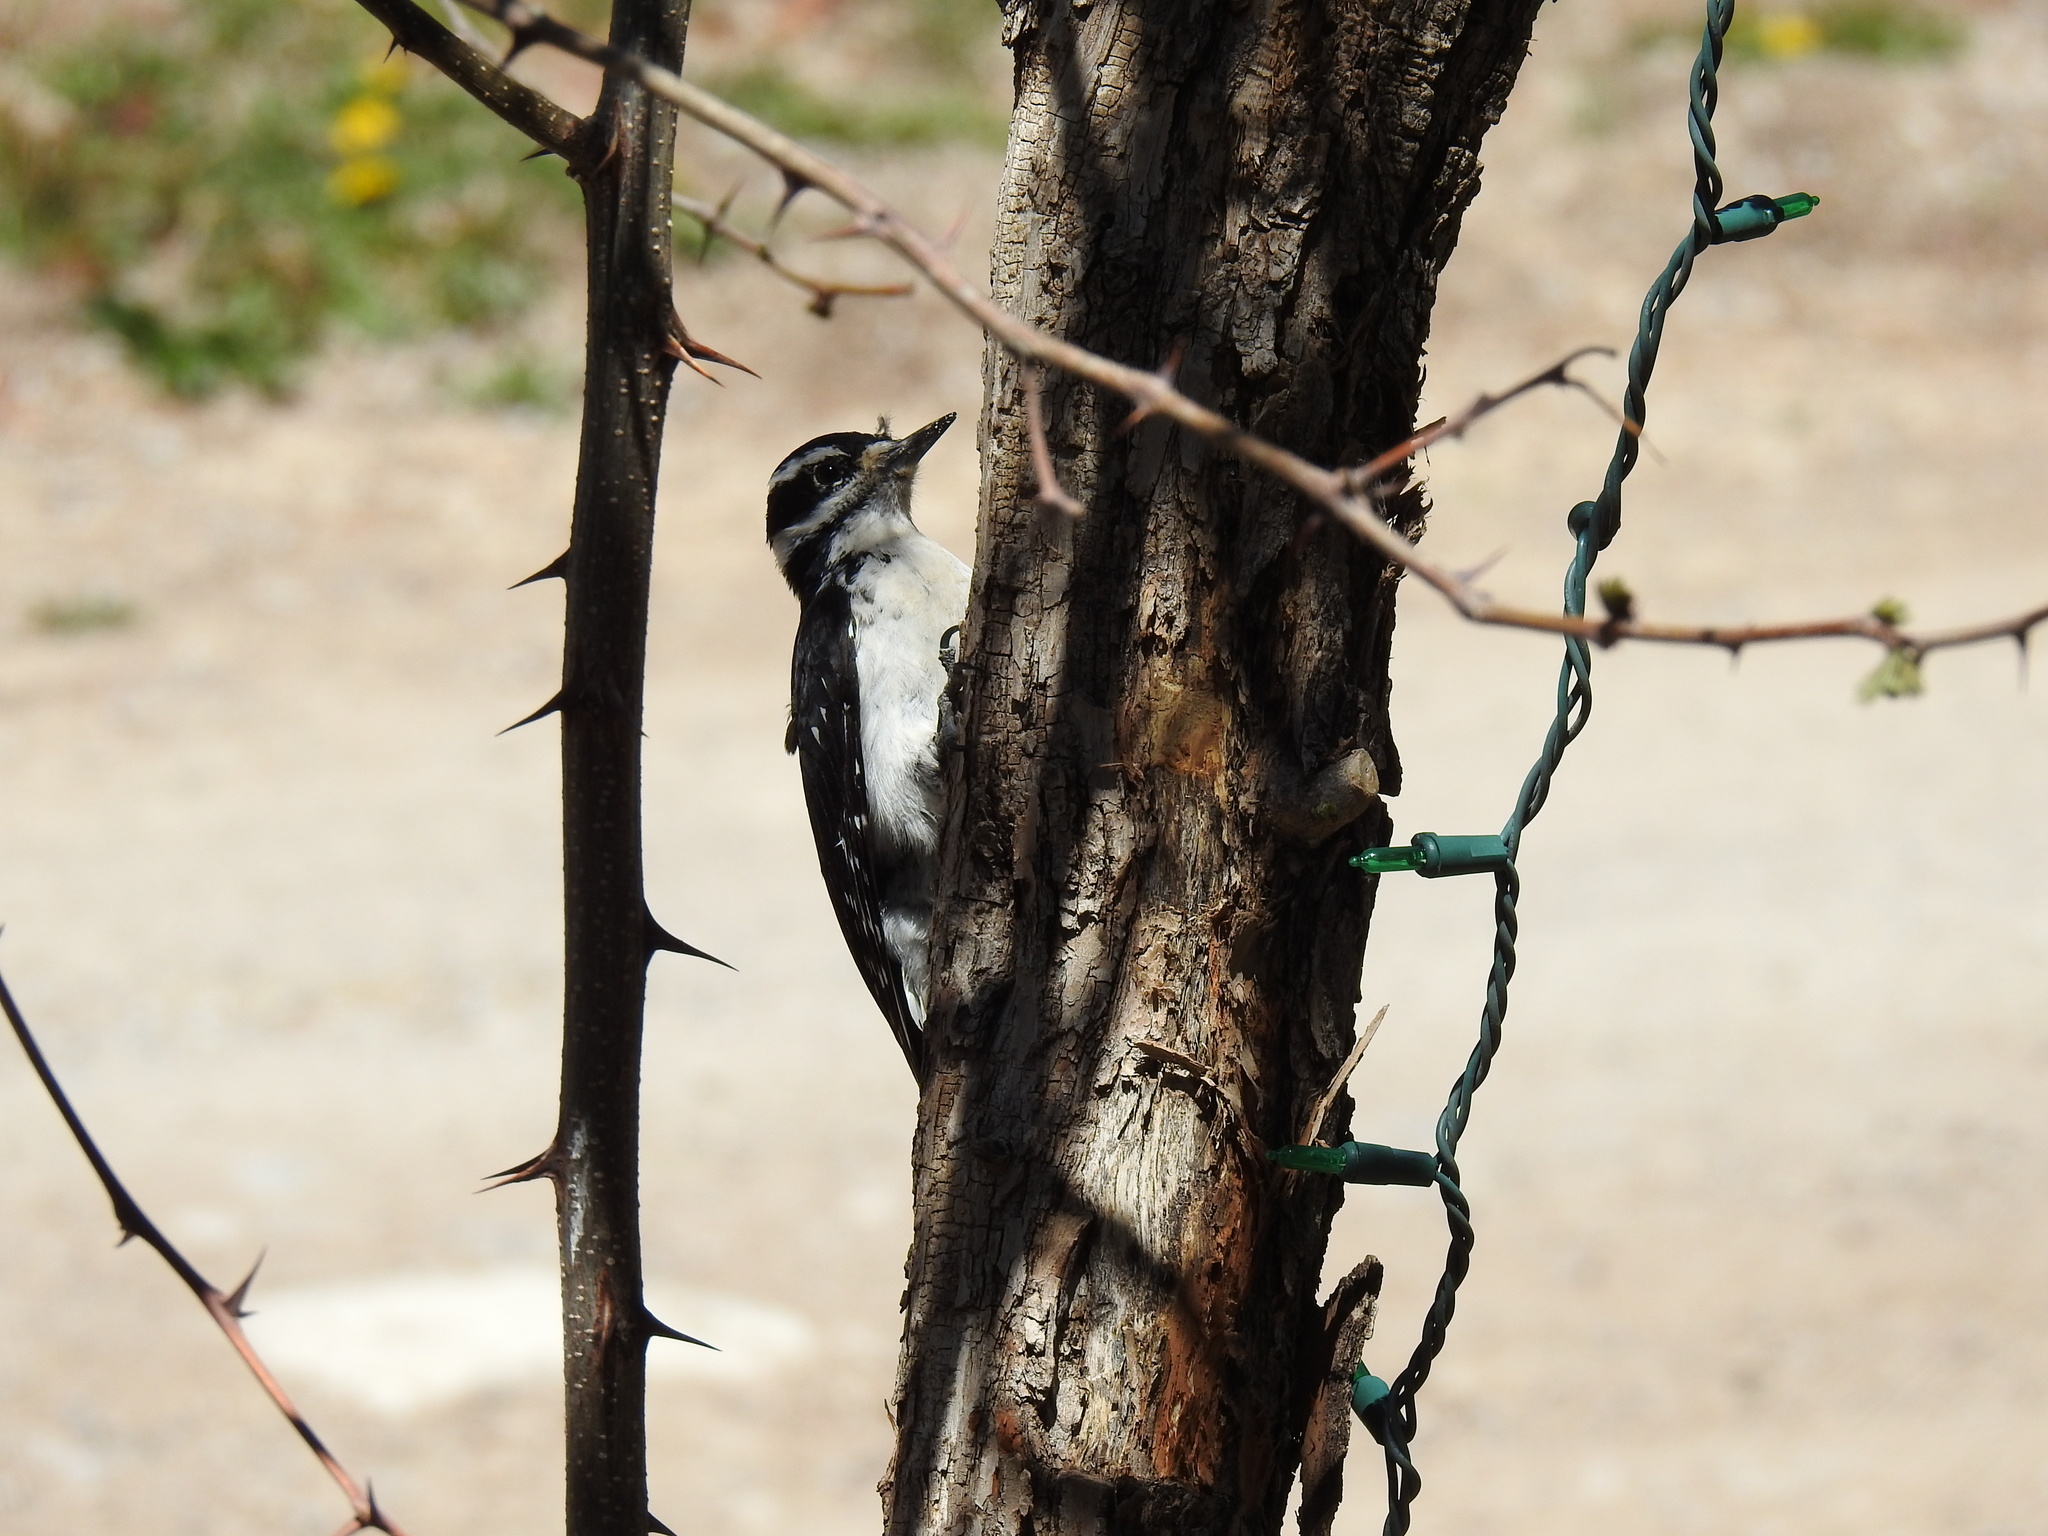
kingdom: Animalia
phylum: Chordata
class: Aves
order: Piciformes
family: Picidae
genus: Leuconotopicus
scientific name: Leuconotopicus villosus
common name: Hairy woodpecker
